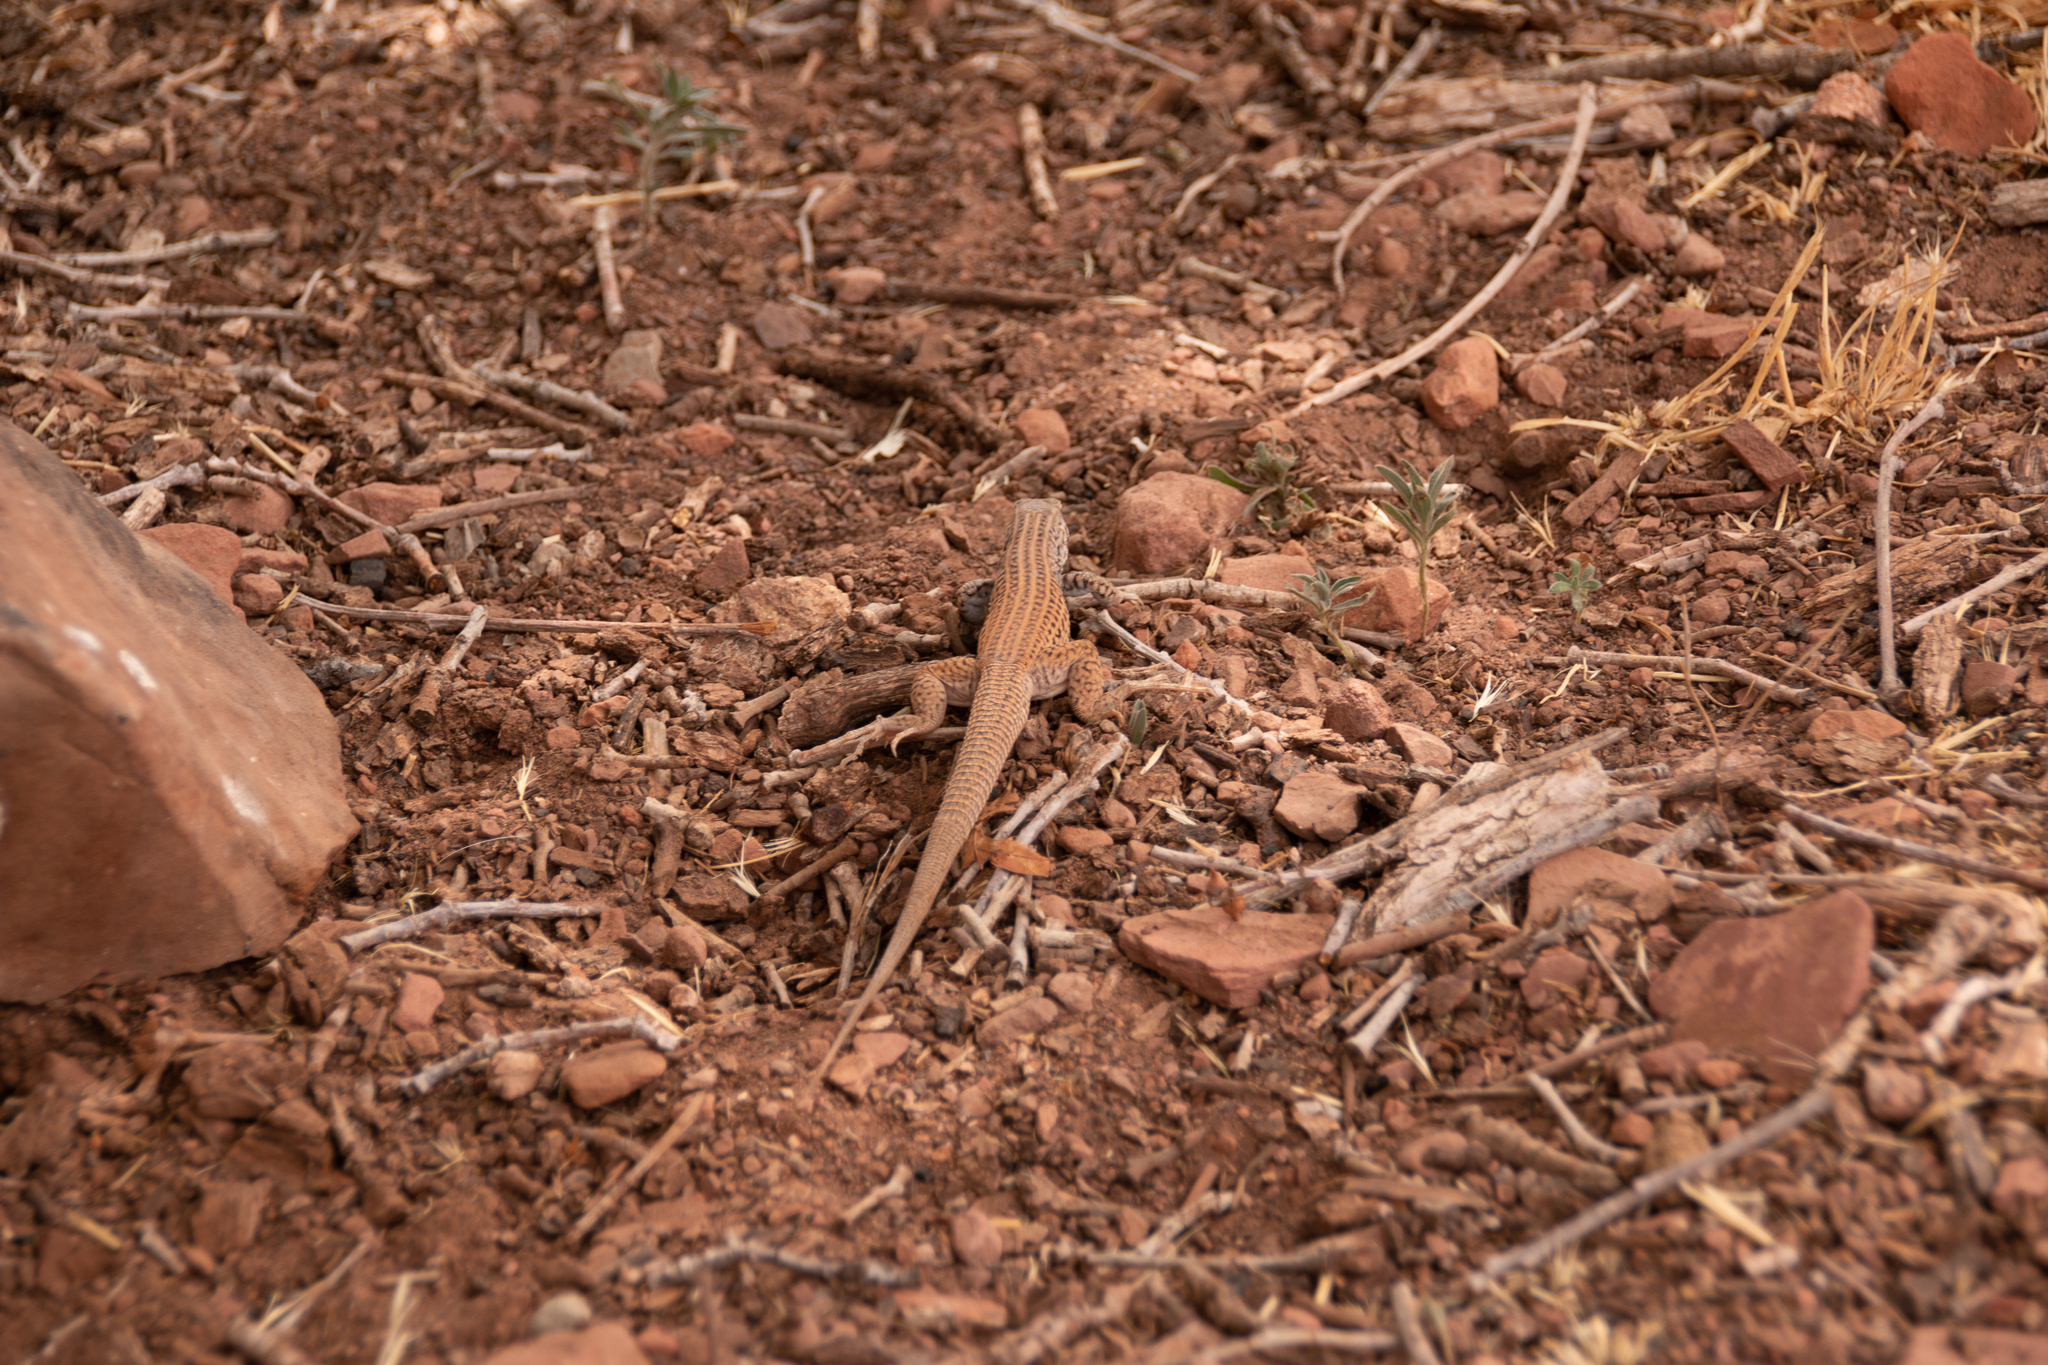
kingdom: Animalia
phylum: Chordata
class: Squamata
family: Teiidae
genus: Aspidoscelis
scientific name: Aspidoscelis tigris
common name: Tiger whiptail
